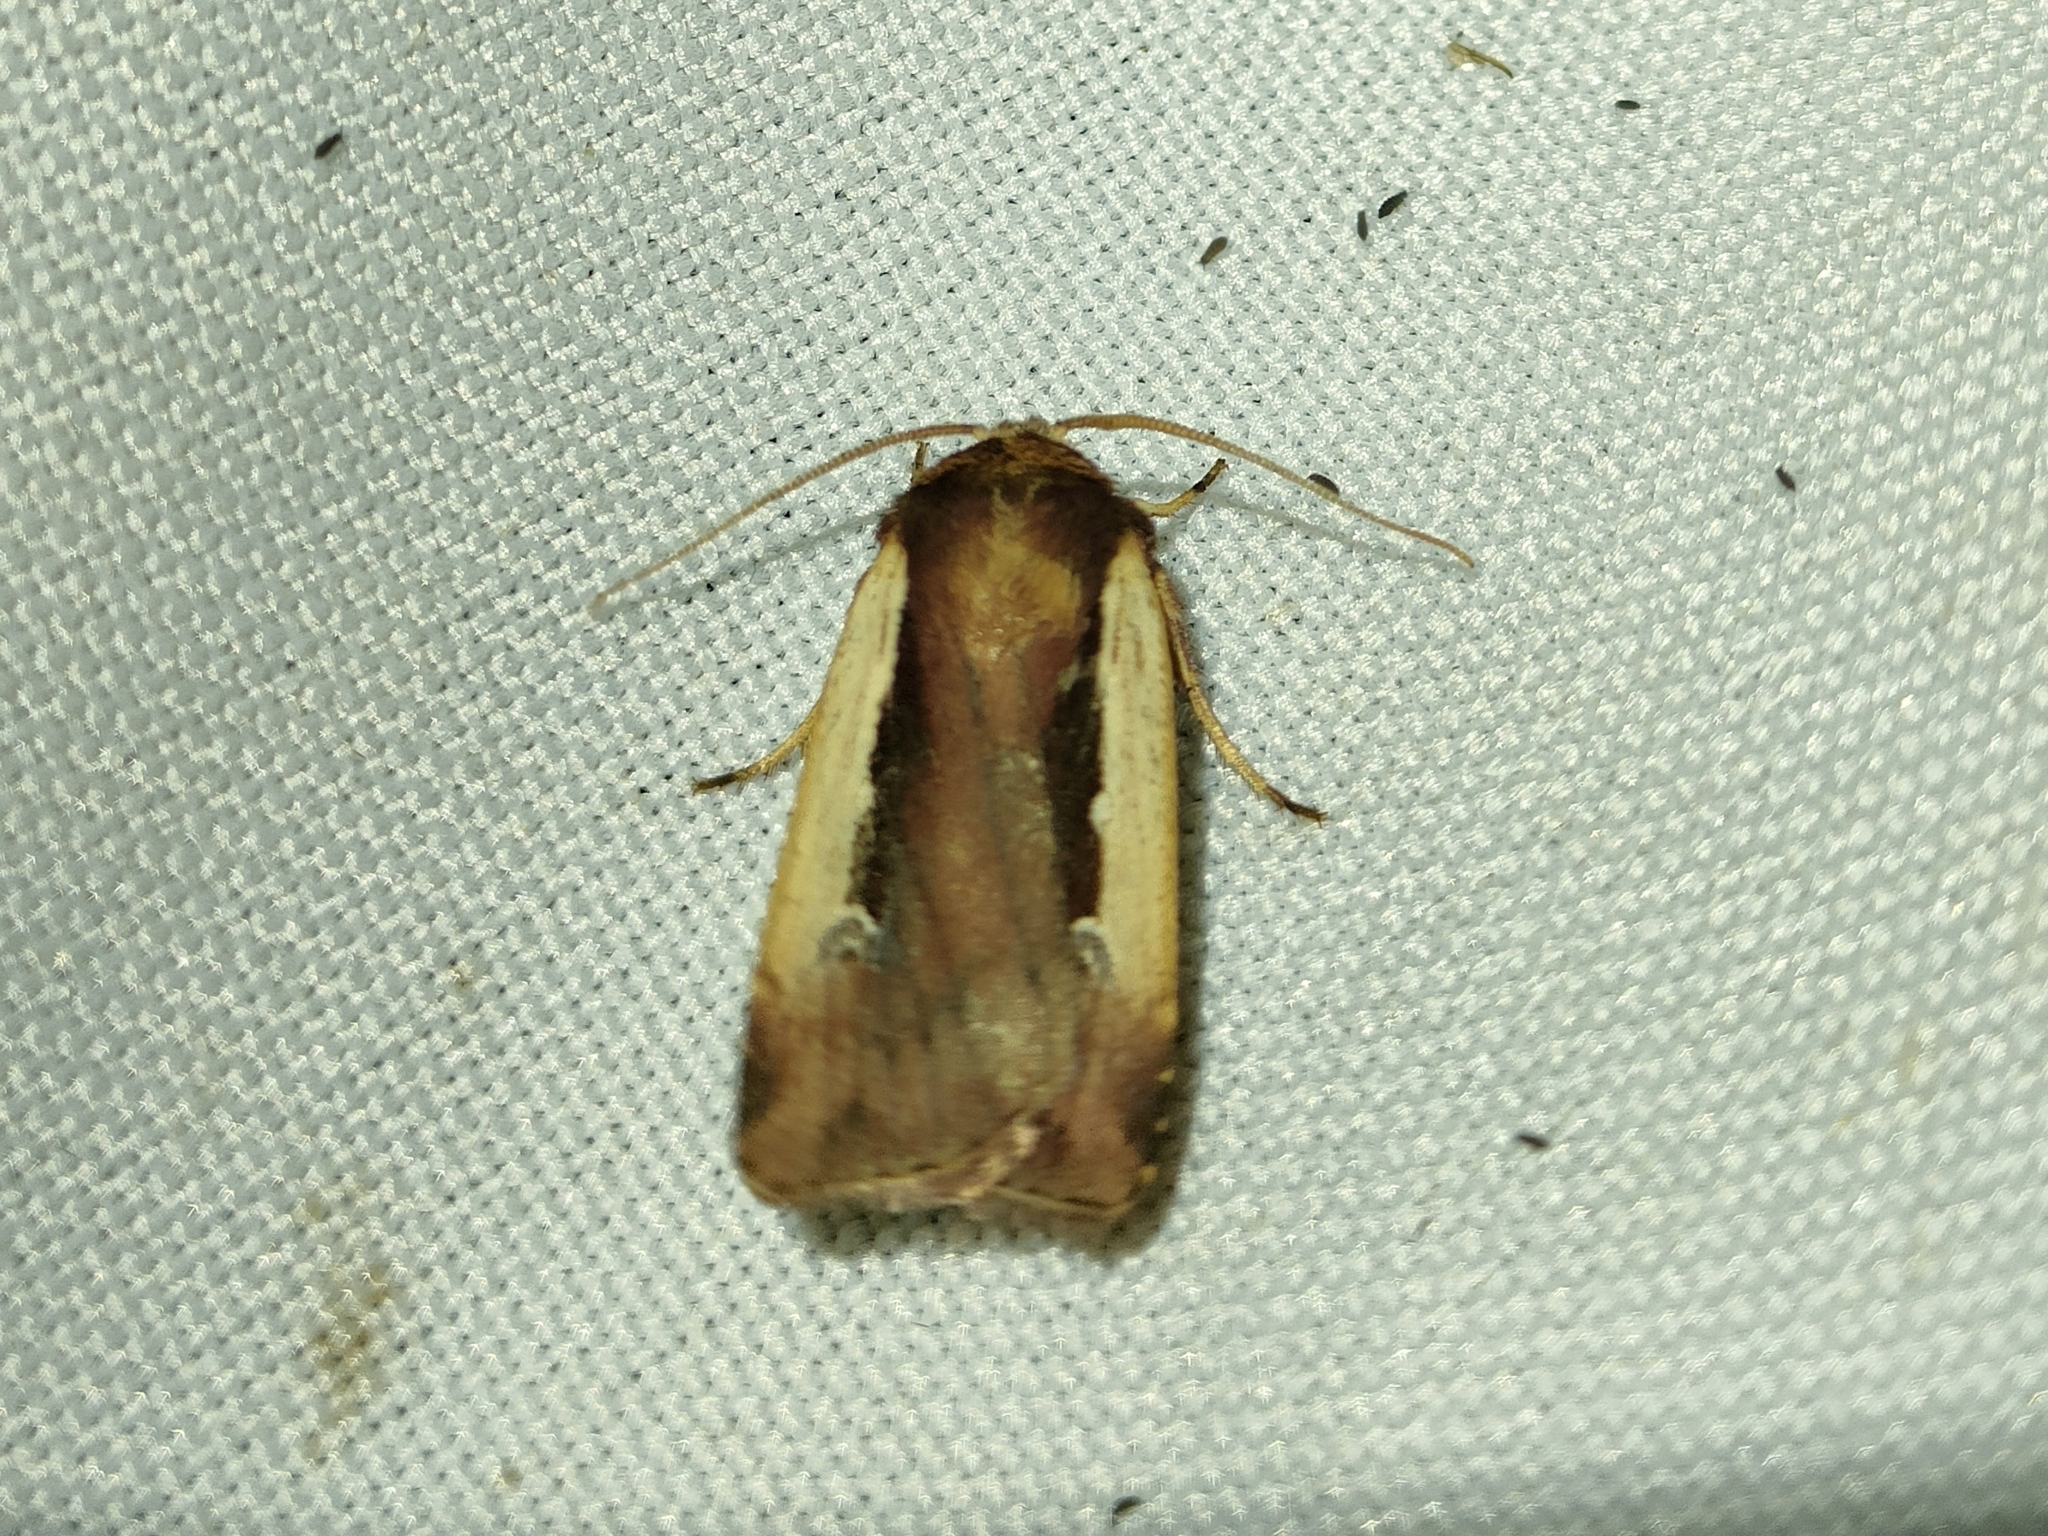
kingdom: Animalia
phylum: Arthropoda
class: Insecta
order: Lepidoptera
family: Noctuidae
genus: Ochropleura
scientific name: Ochropleura plecta
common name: Flame shoulder
